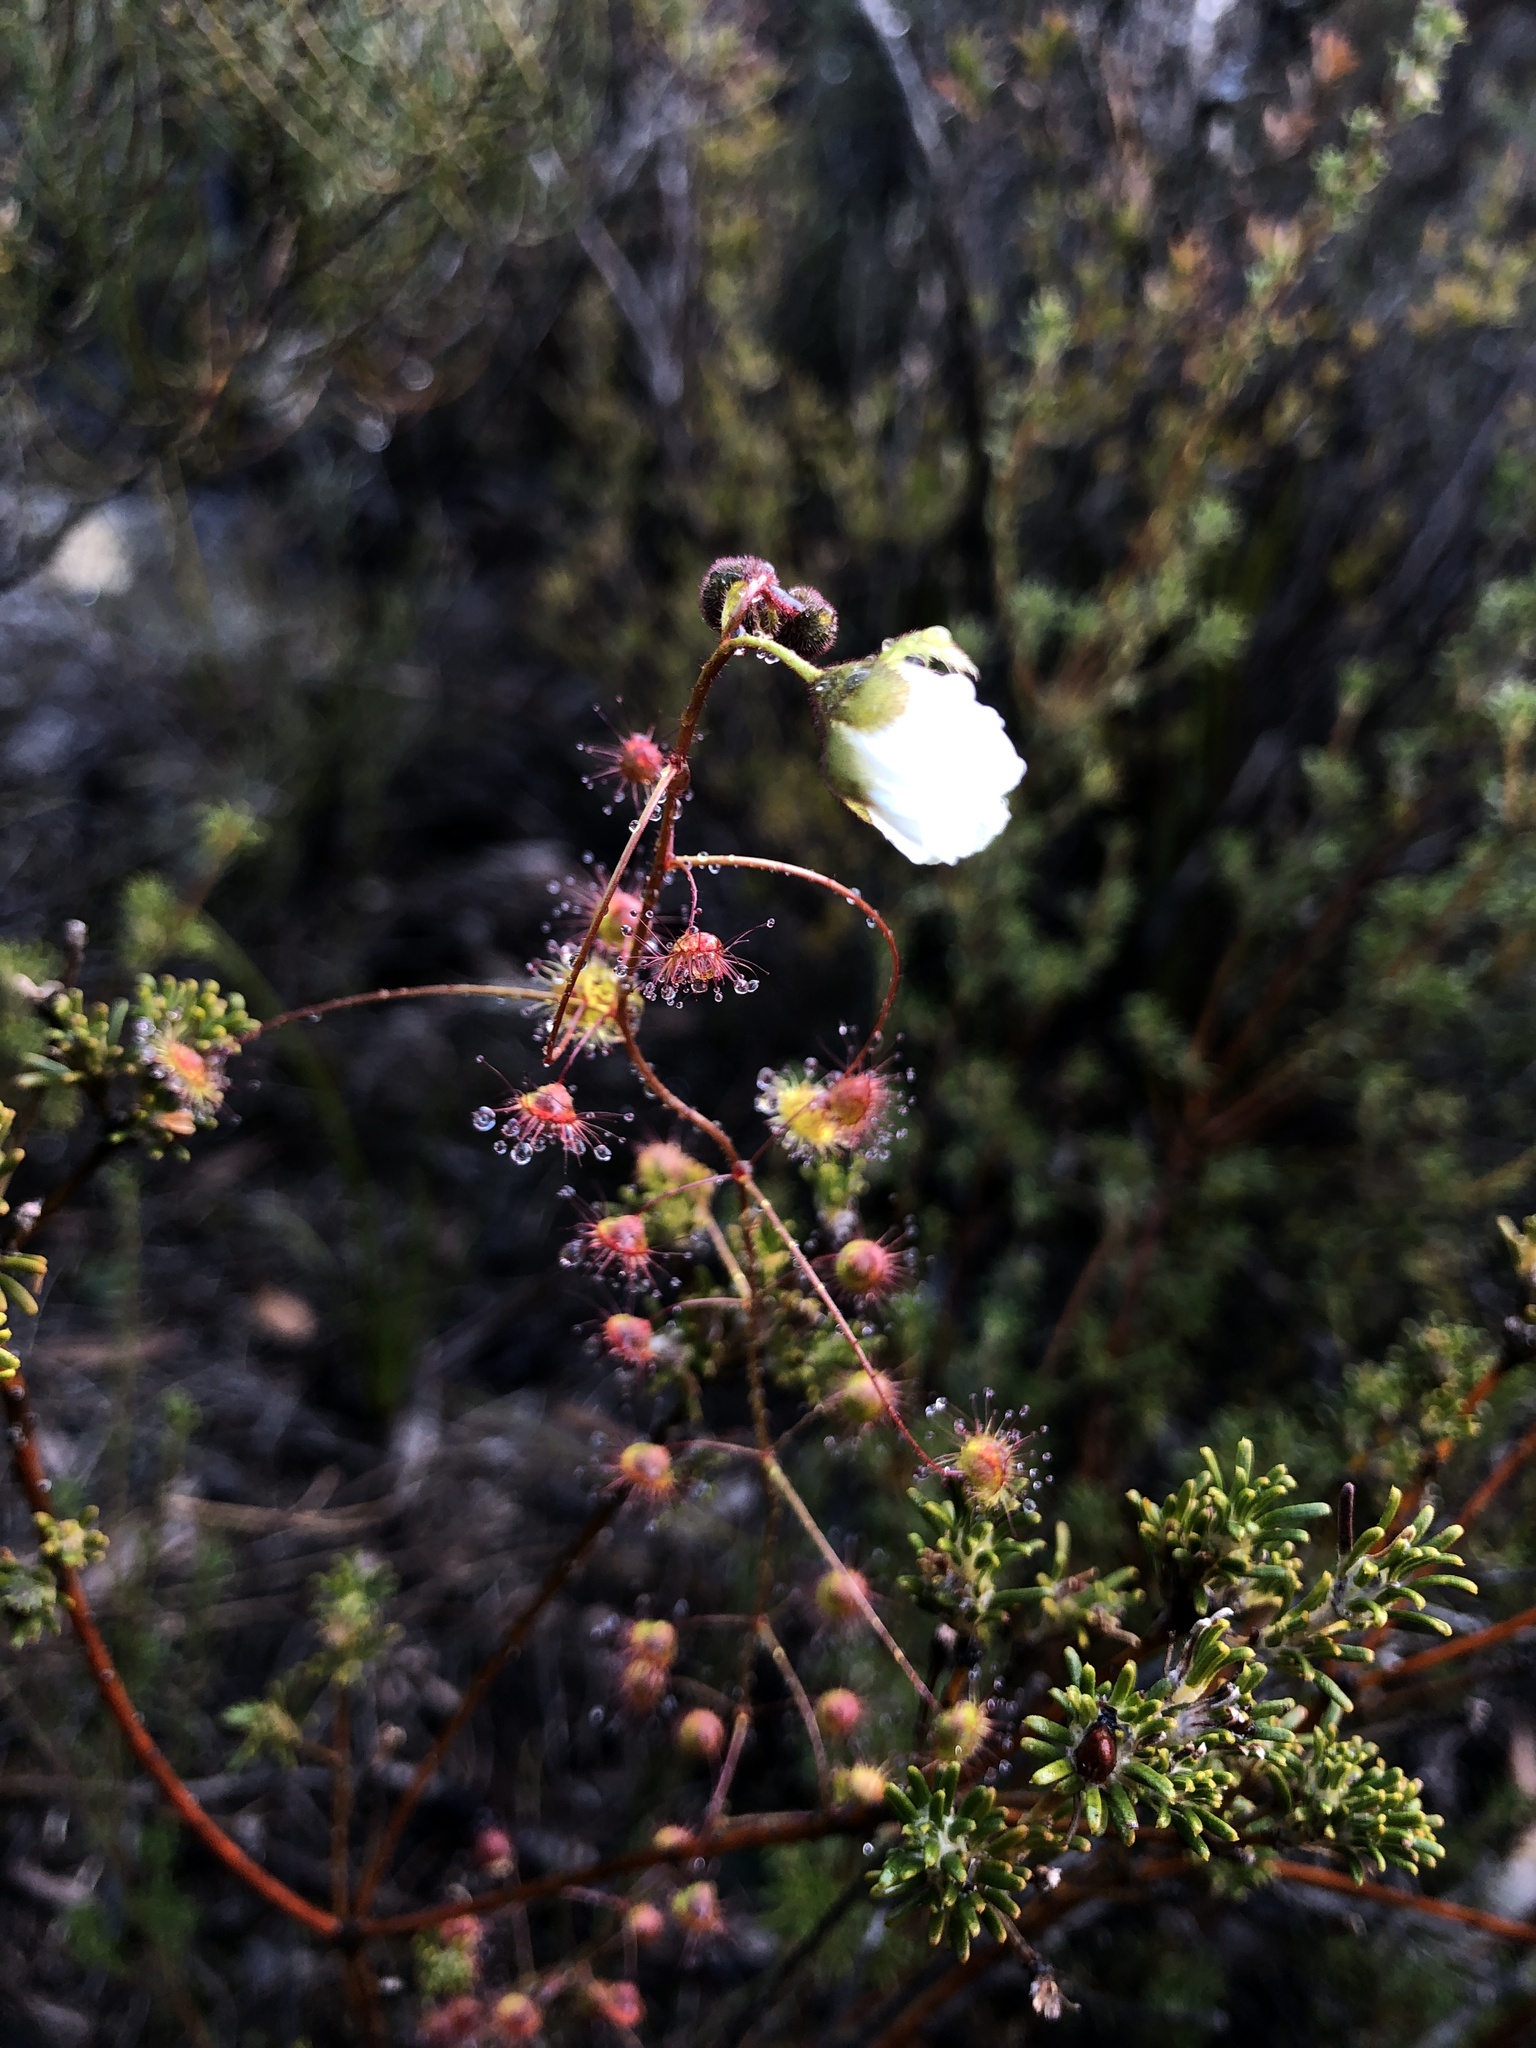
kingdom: Plantae
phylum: Tracheophyta
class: Magnoliopsida
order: Caryophyllales
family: Droseraceae
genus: Drosera
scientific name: Drosera planchonii
